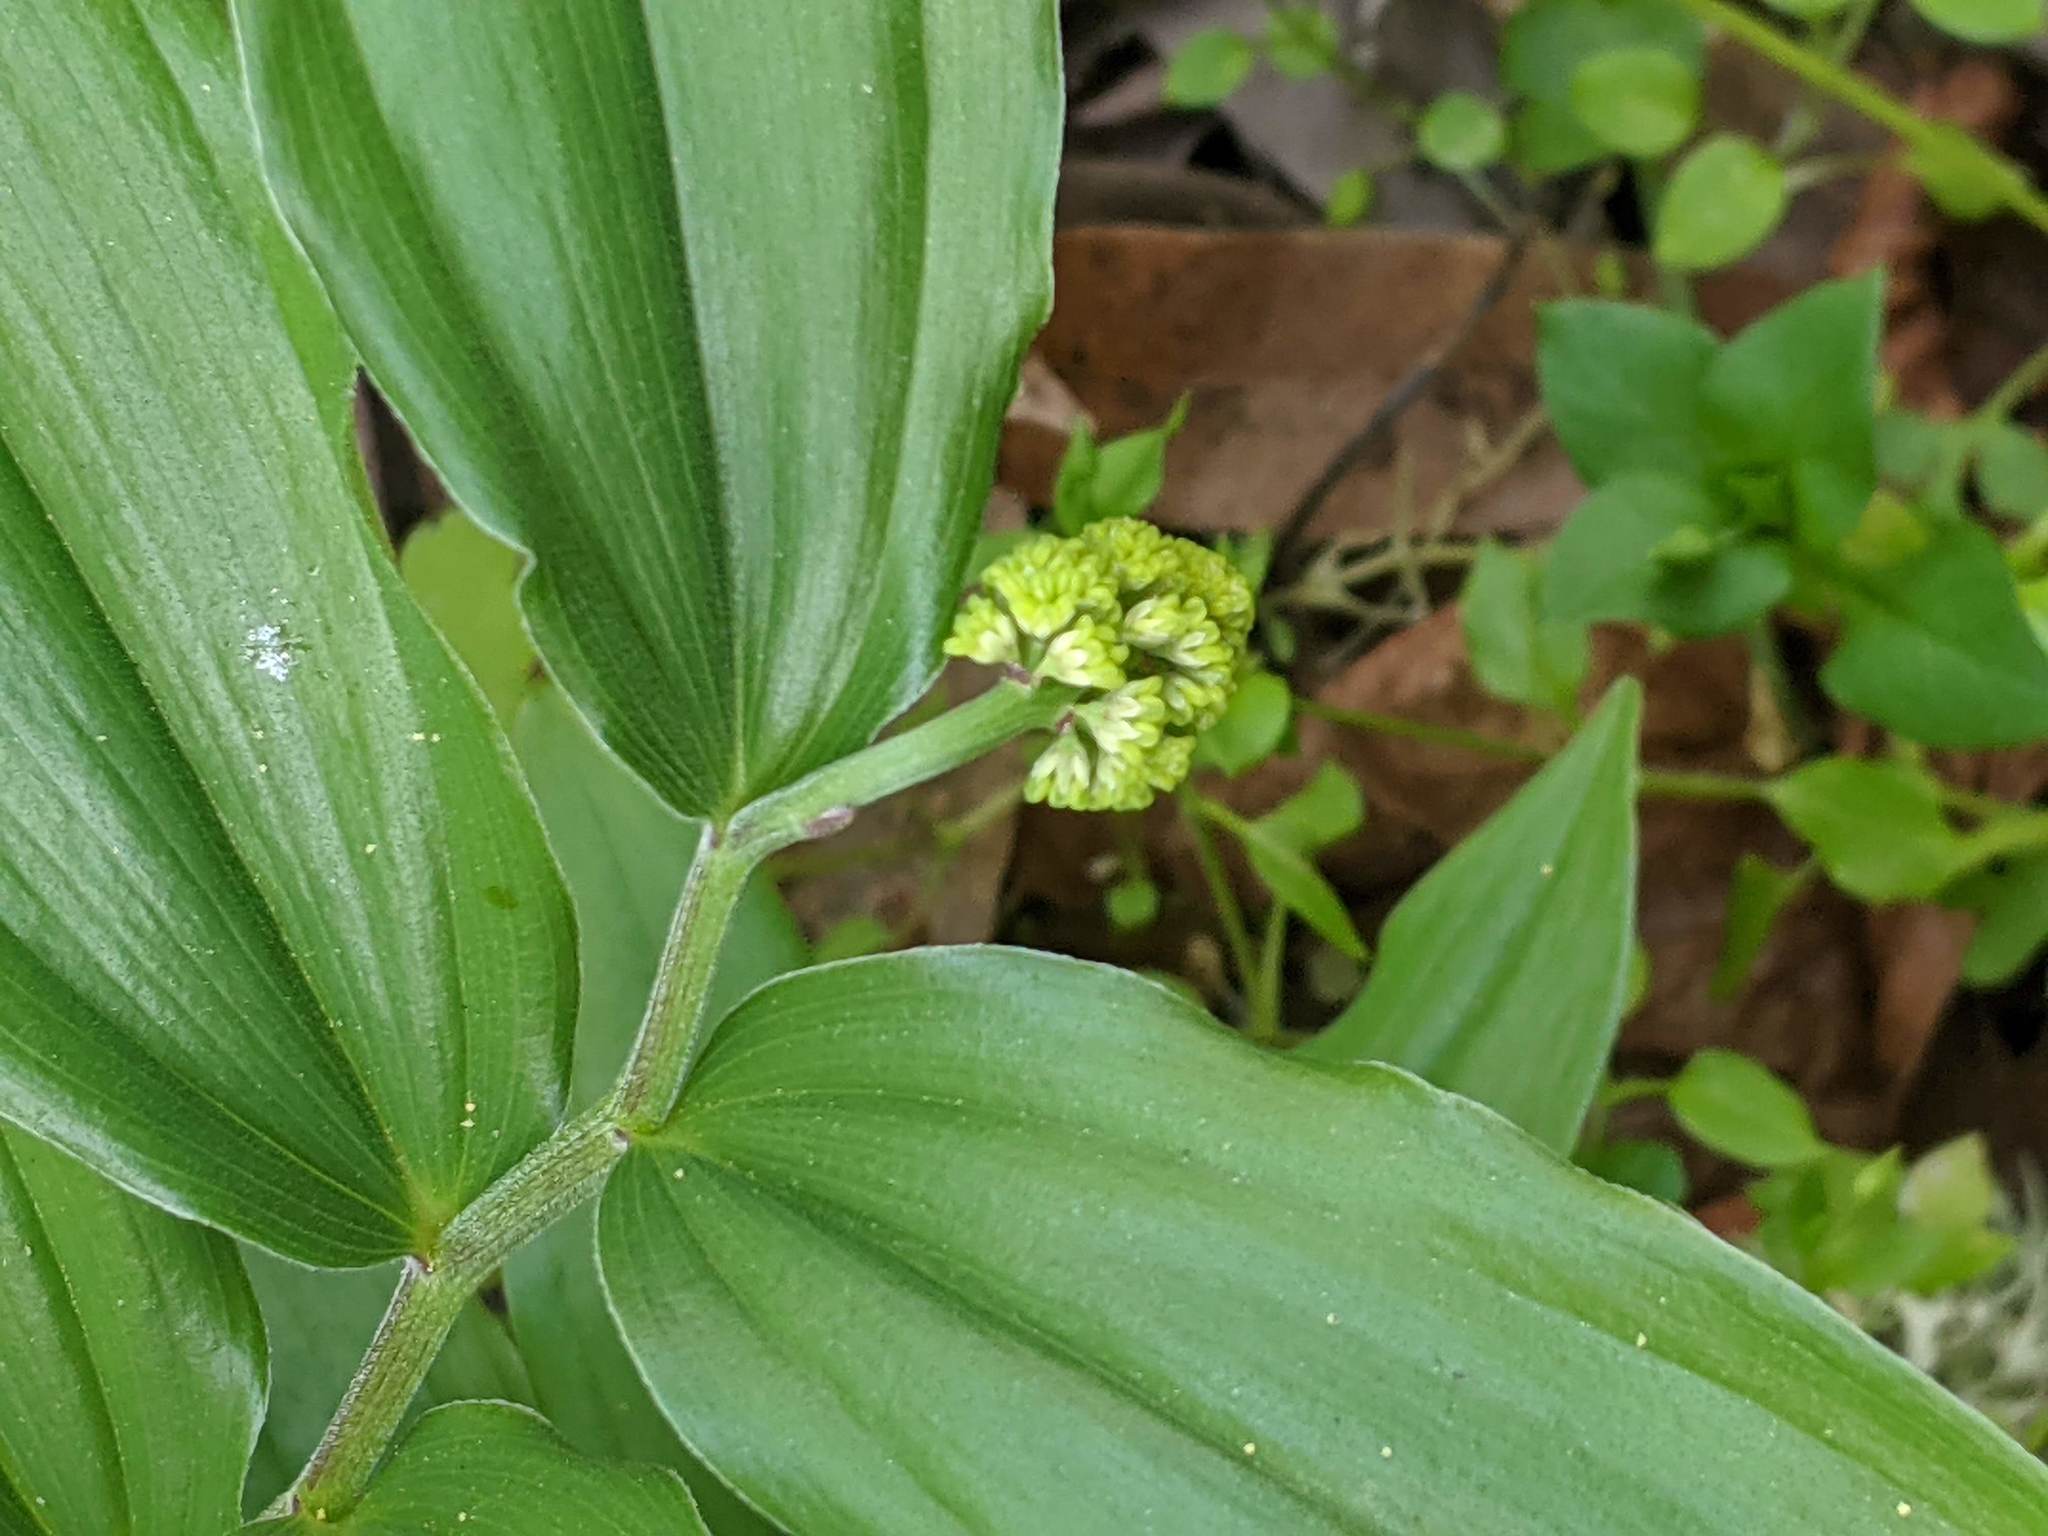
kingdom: Plantae
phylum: Tracheophyta
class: Liliopsida
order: Asparagales
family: Asparagaceae
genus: Maianthemum
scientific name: Maianthemum racemosum
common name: False spikenard
